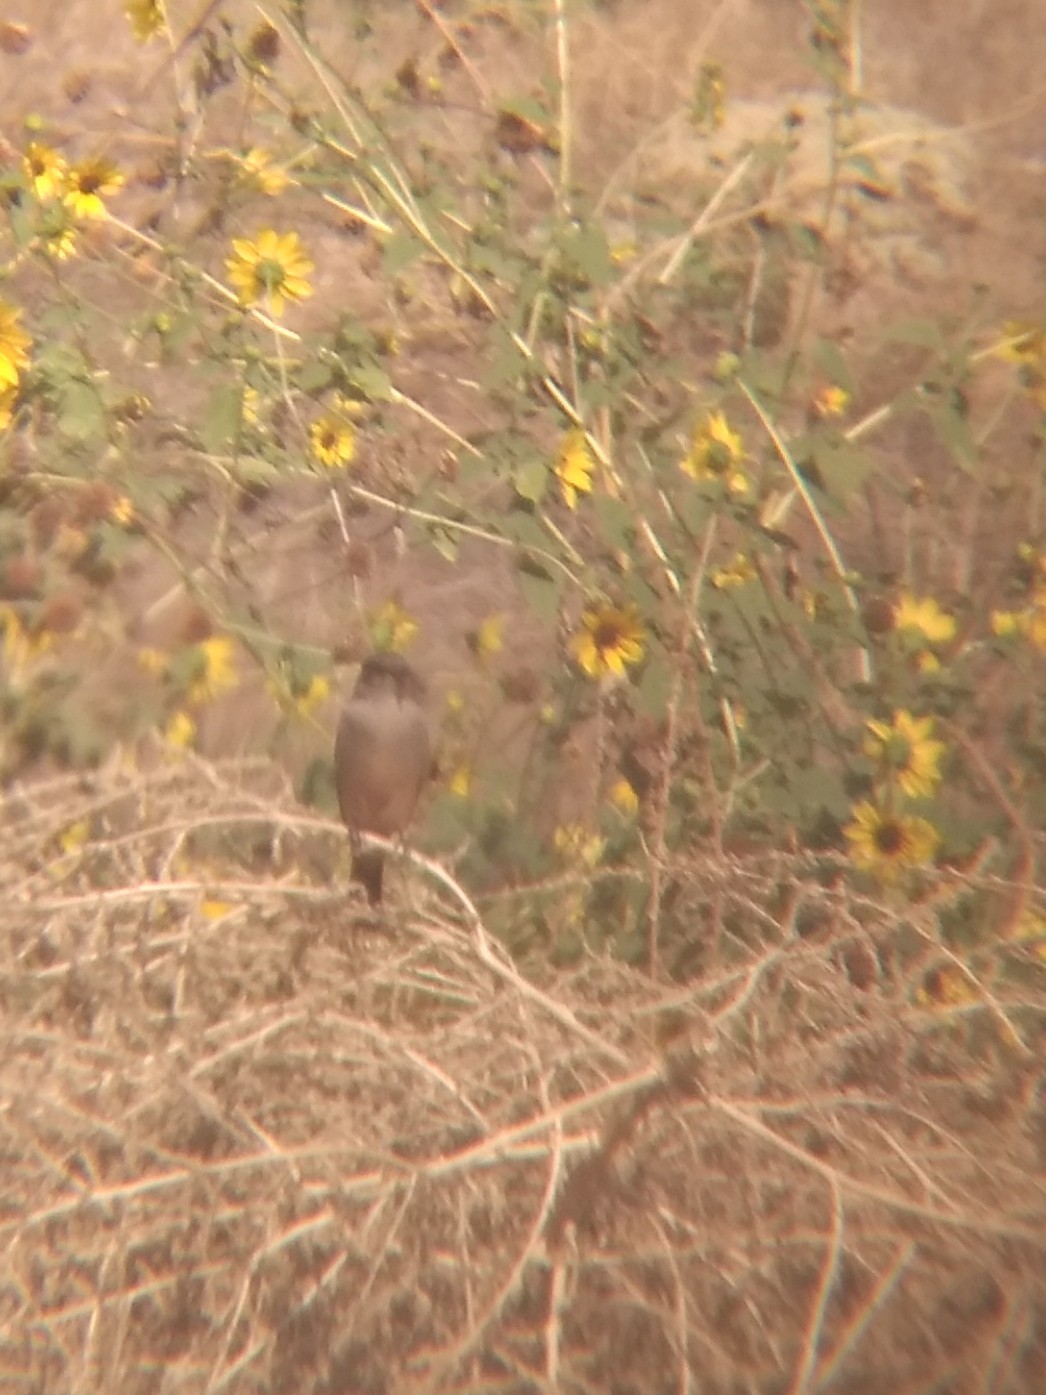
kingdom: Animalia
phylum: Chordata
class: Aves
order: Passeriformes
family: Tyrannidae
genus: Sayornis
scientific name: Sayornis saya
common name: Say's phoebe
